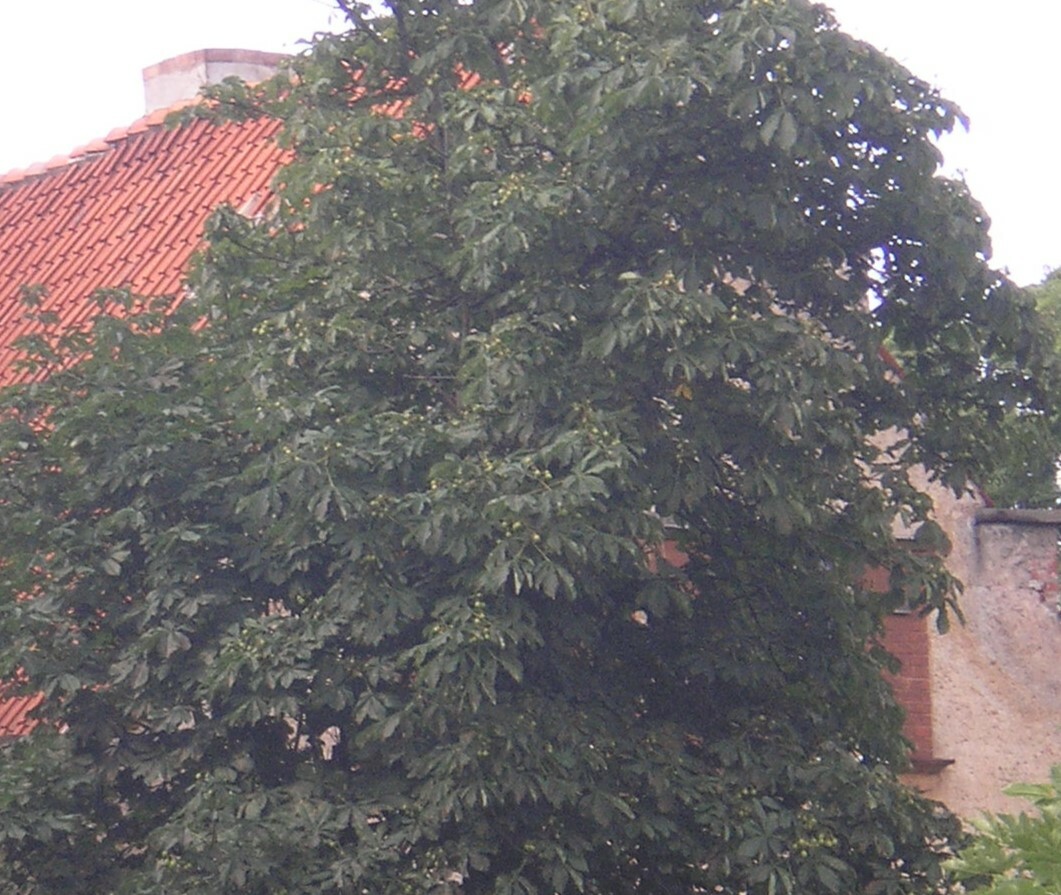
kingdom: Plantae
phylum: Tracheophyta
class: Magnoliopsida
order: Sapindales
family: Sapindaceae
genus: Aesculus
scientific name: Aesculus hippocastanum
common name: Horse-chestnut
